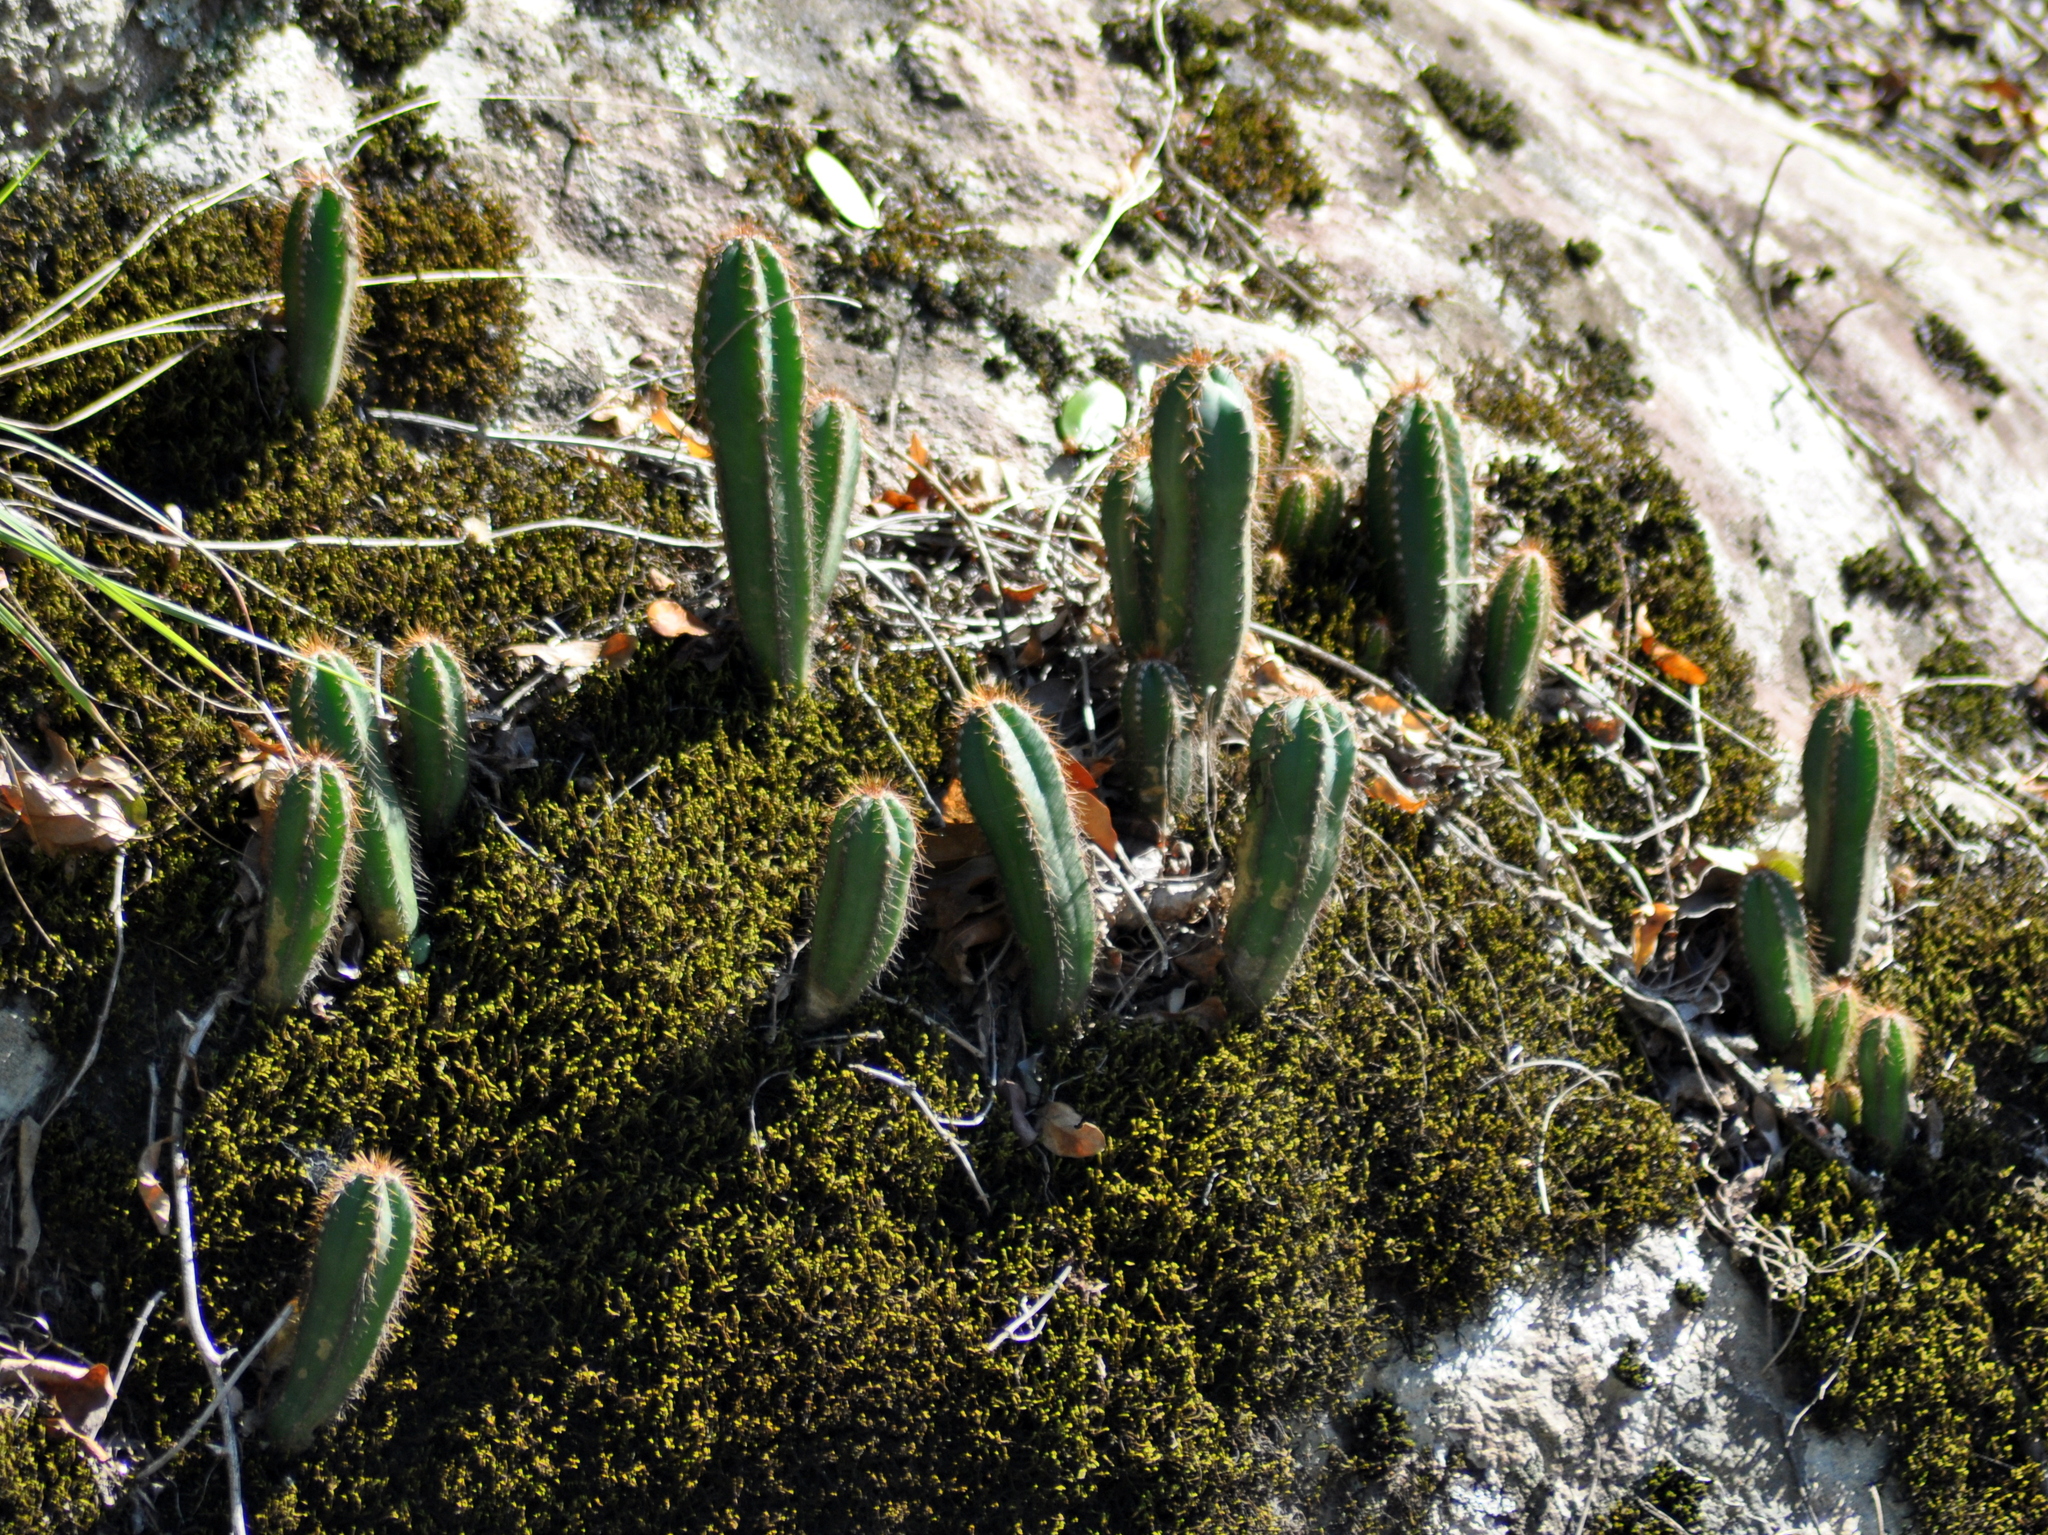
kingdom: Plantae
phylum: Tracheophyta
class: Magnoliopsida
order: Caryophyllales
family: Cactaceae
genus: Cereus
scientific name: Cereus hildmannianus
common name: Hedge cactus
